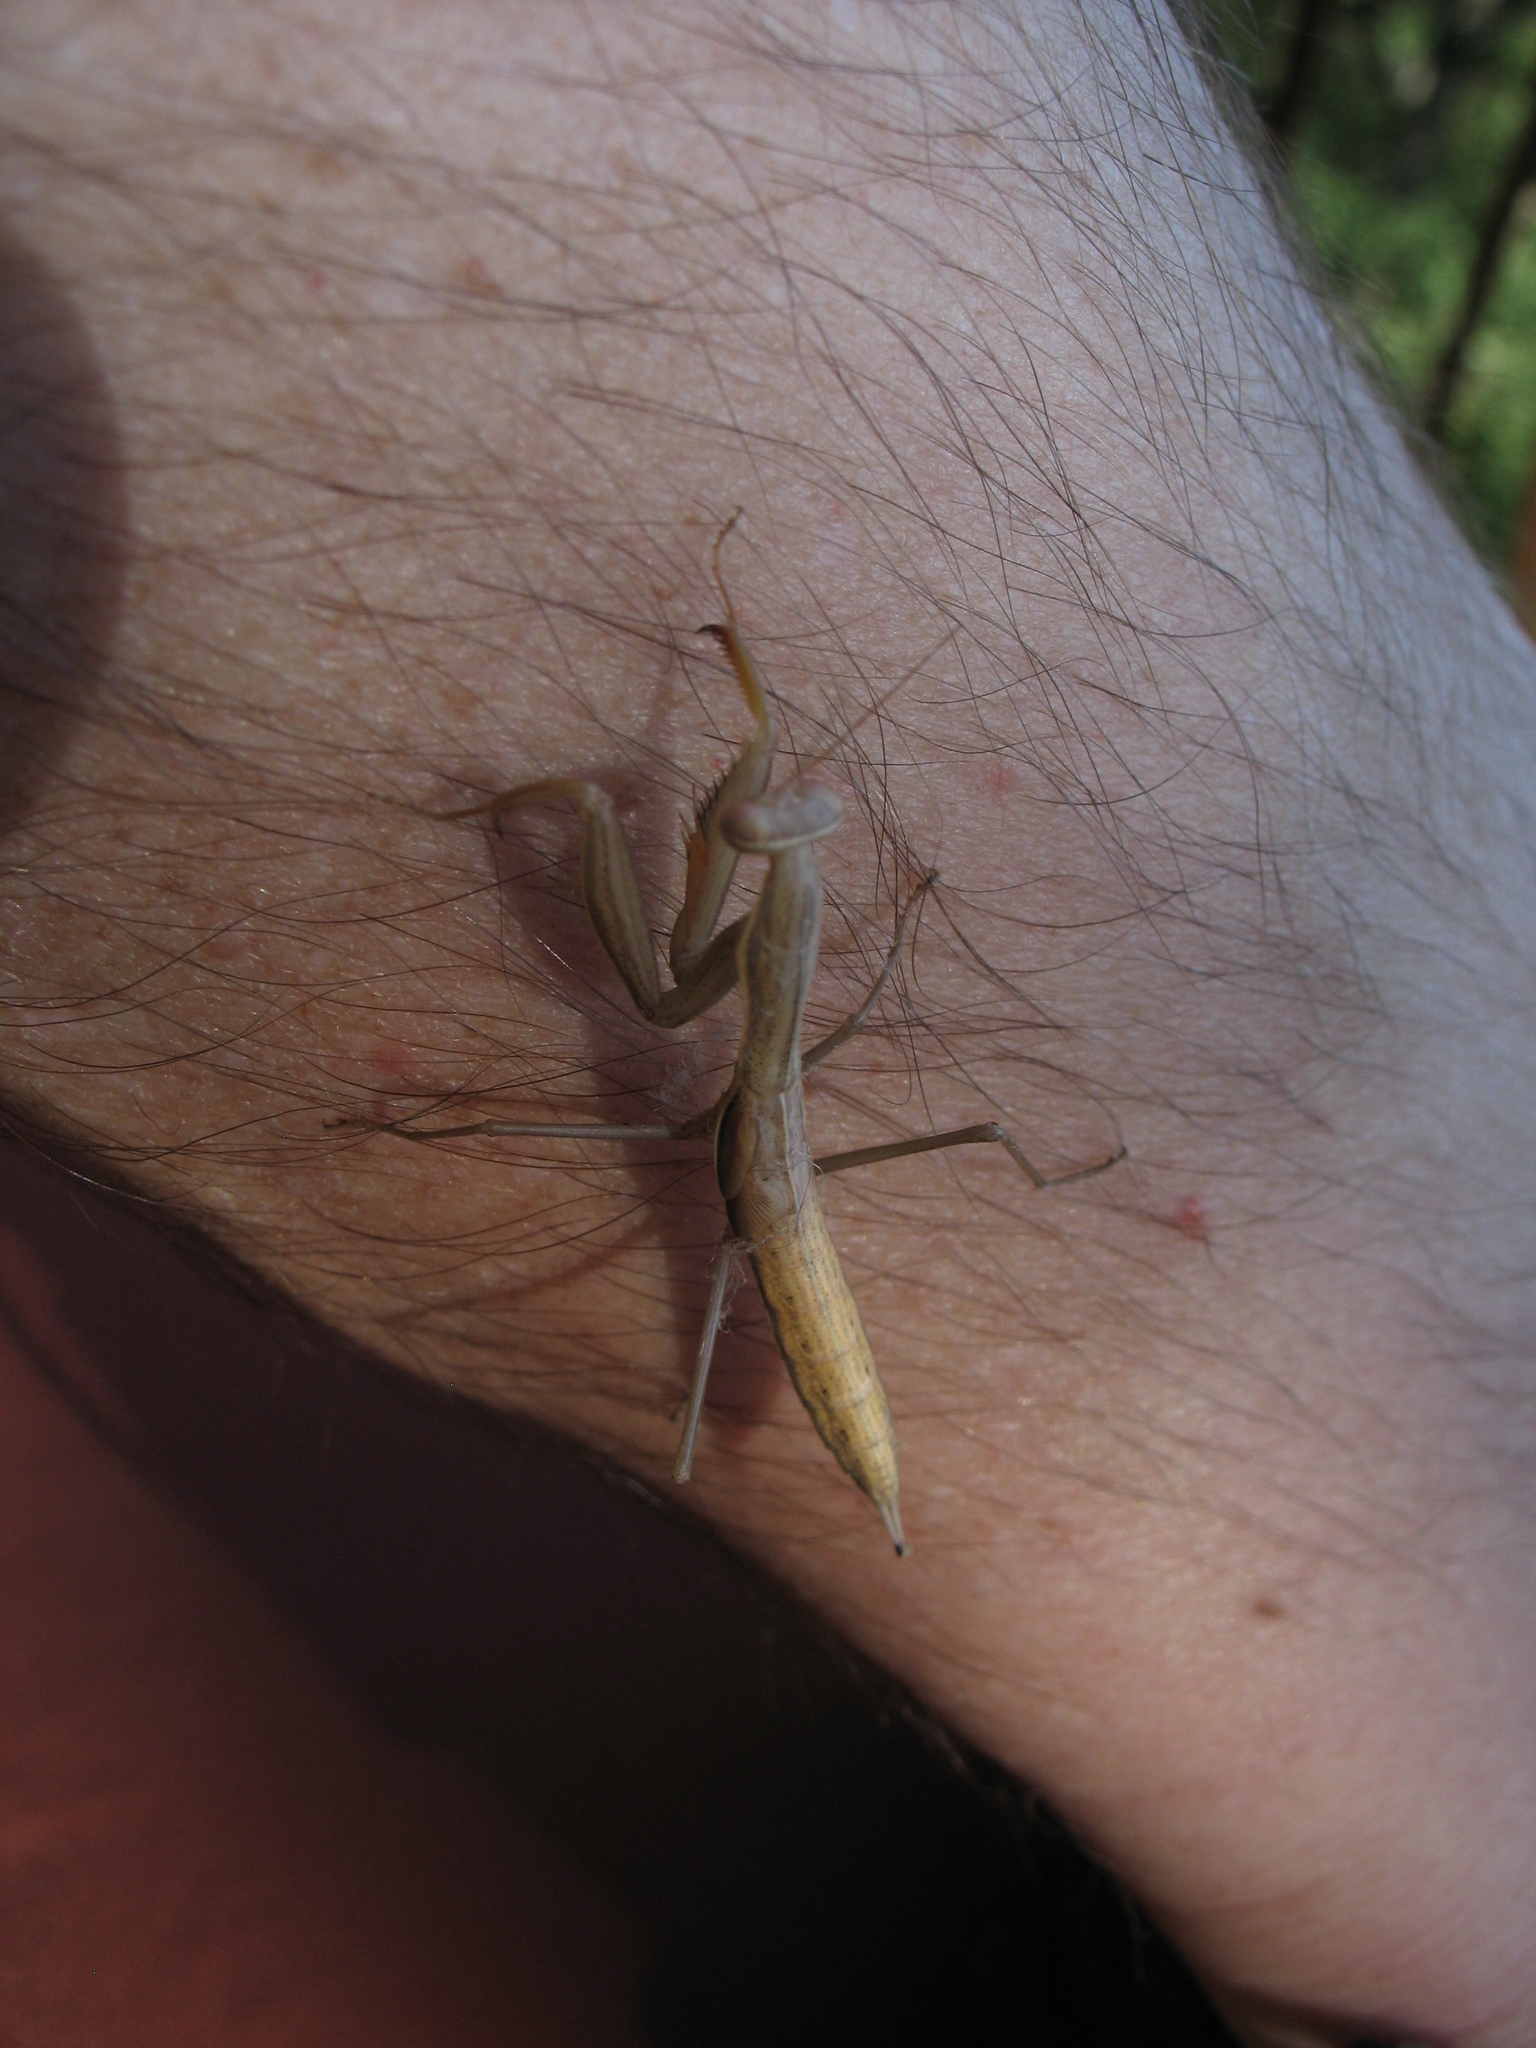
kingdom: Animalia
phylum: Arthropoda
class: Insecta
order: Mantodea
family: Mantidae
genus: Mantis
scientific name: Mantis religiosa
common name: Praying mantis
